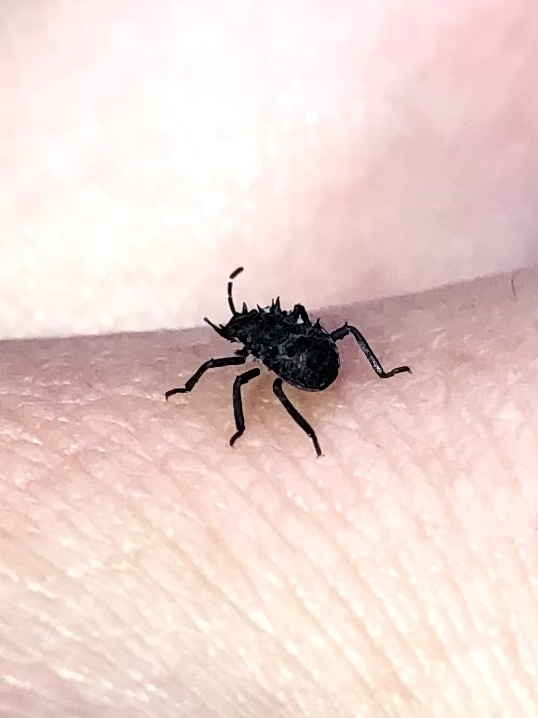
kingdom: Animalia
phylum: Arthropoda
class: Insecta
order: Hemiptera
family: Pentatomidae
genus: Halyomorpha
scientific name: Halyomorpha halys
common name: Brown marmorated stink bug
